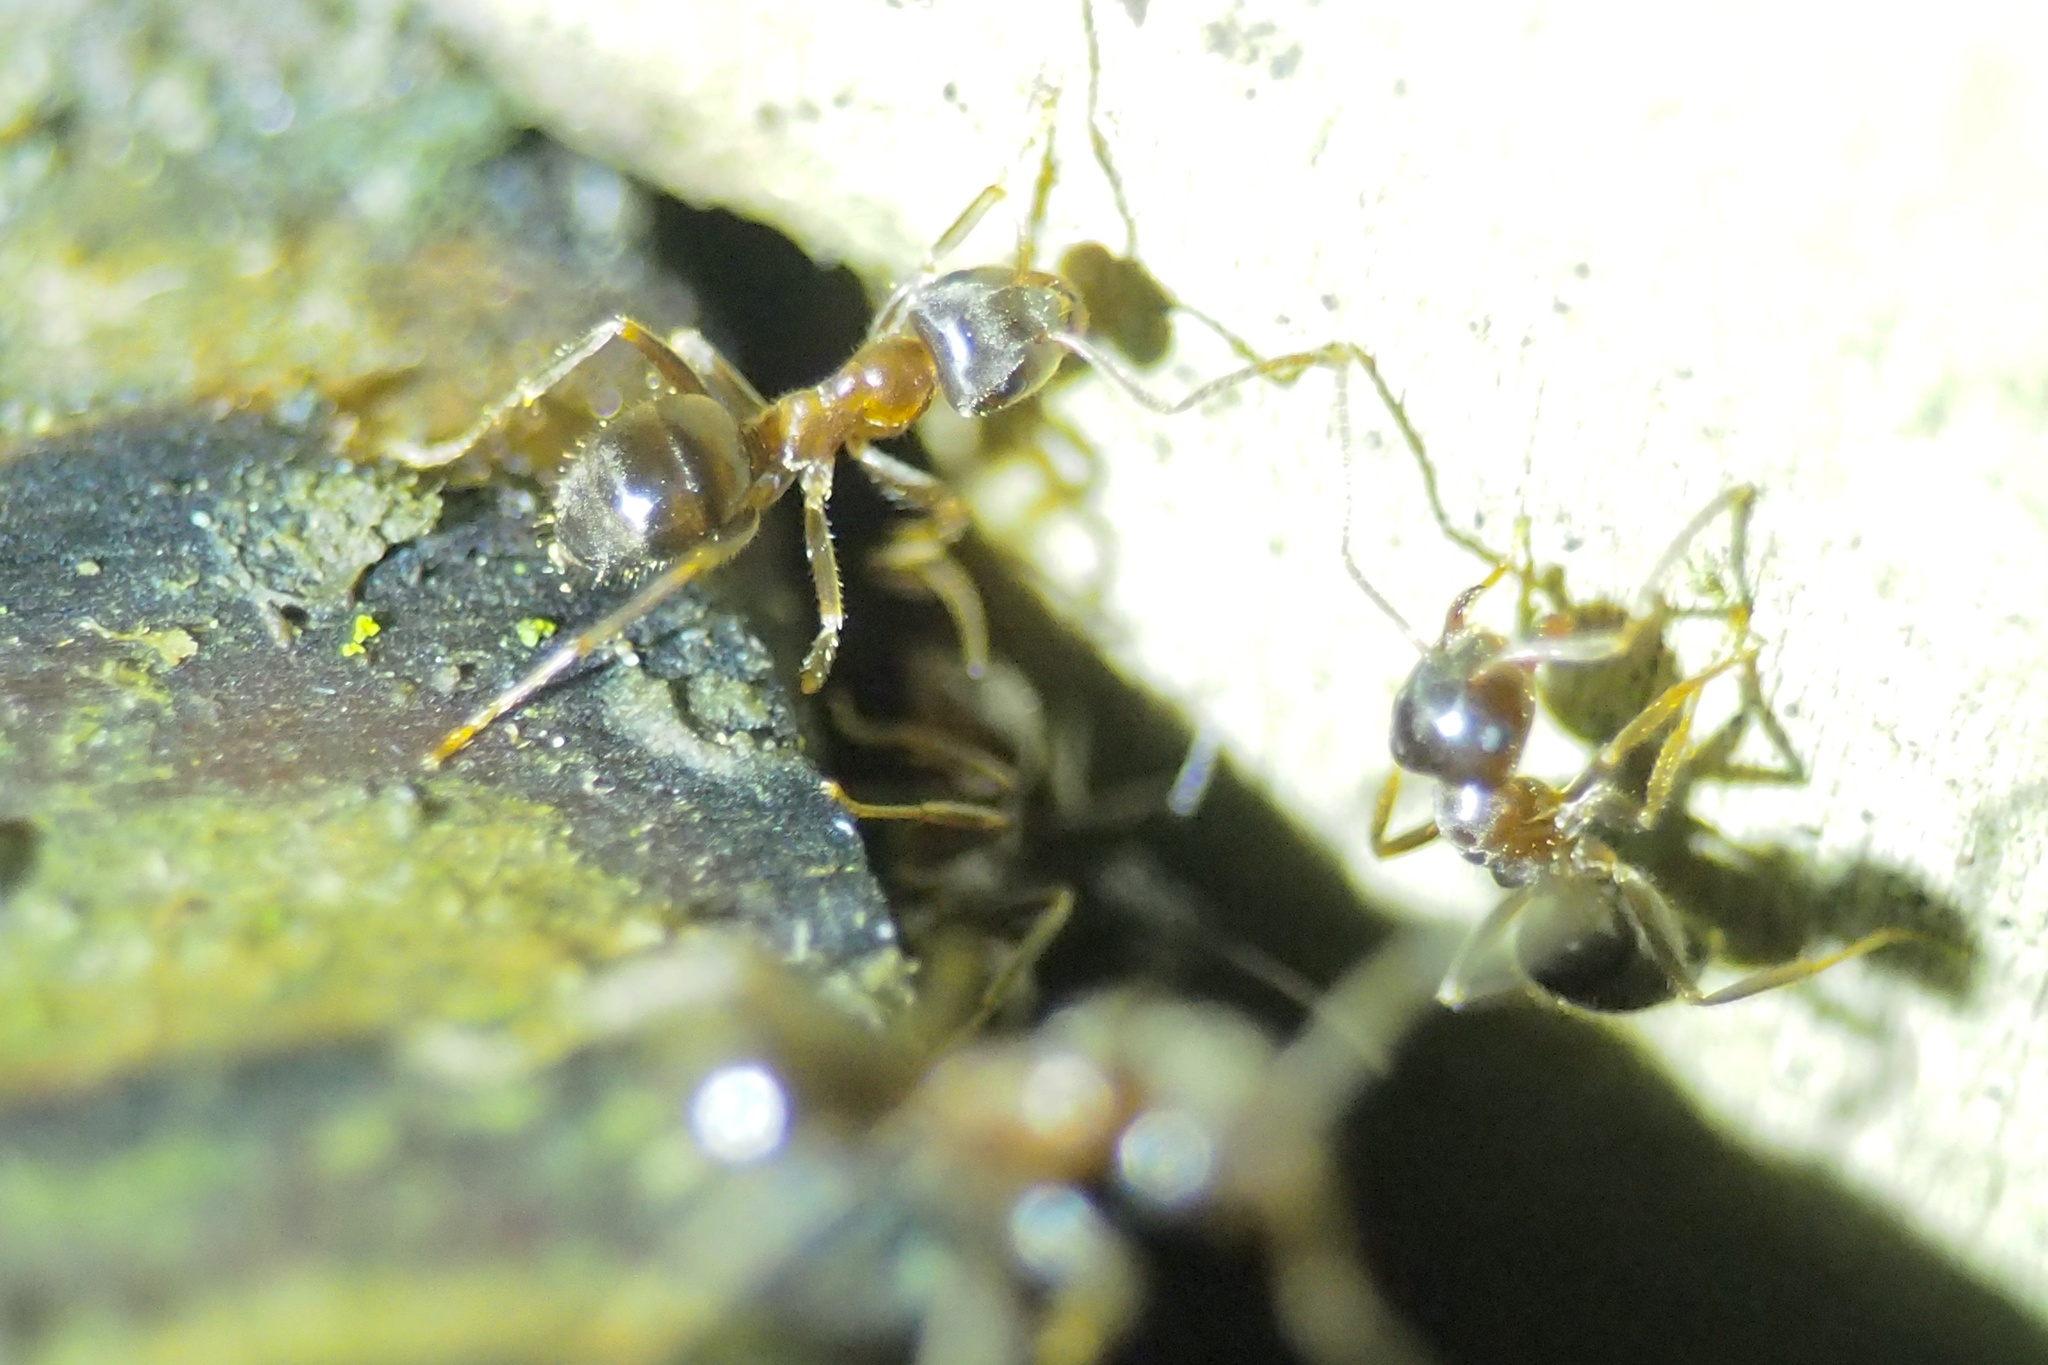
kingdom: Animalia
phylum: Arthropoda
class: Insecta
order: Hymenoptera
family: Formicidae
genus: Lasius
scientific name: Lasius hayashi
